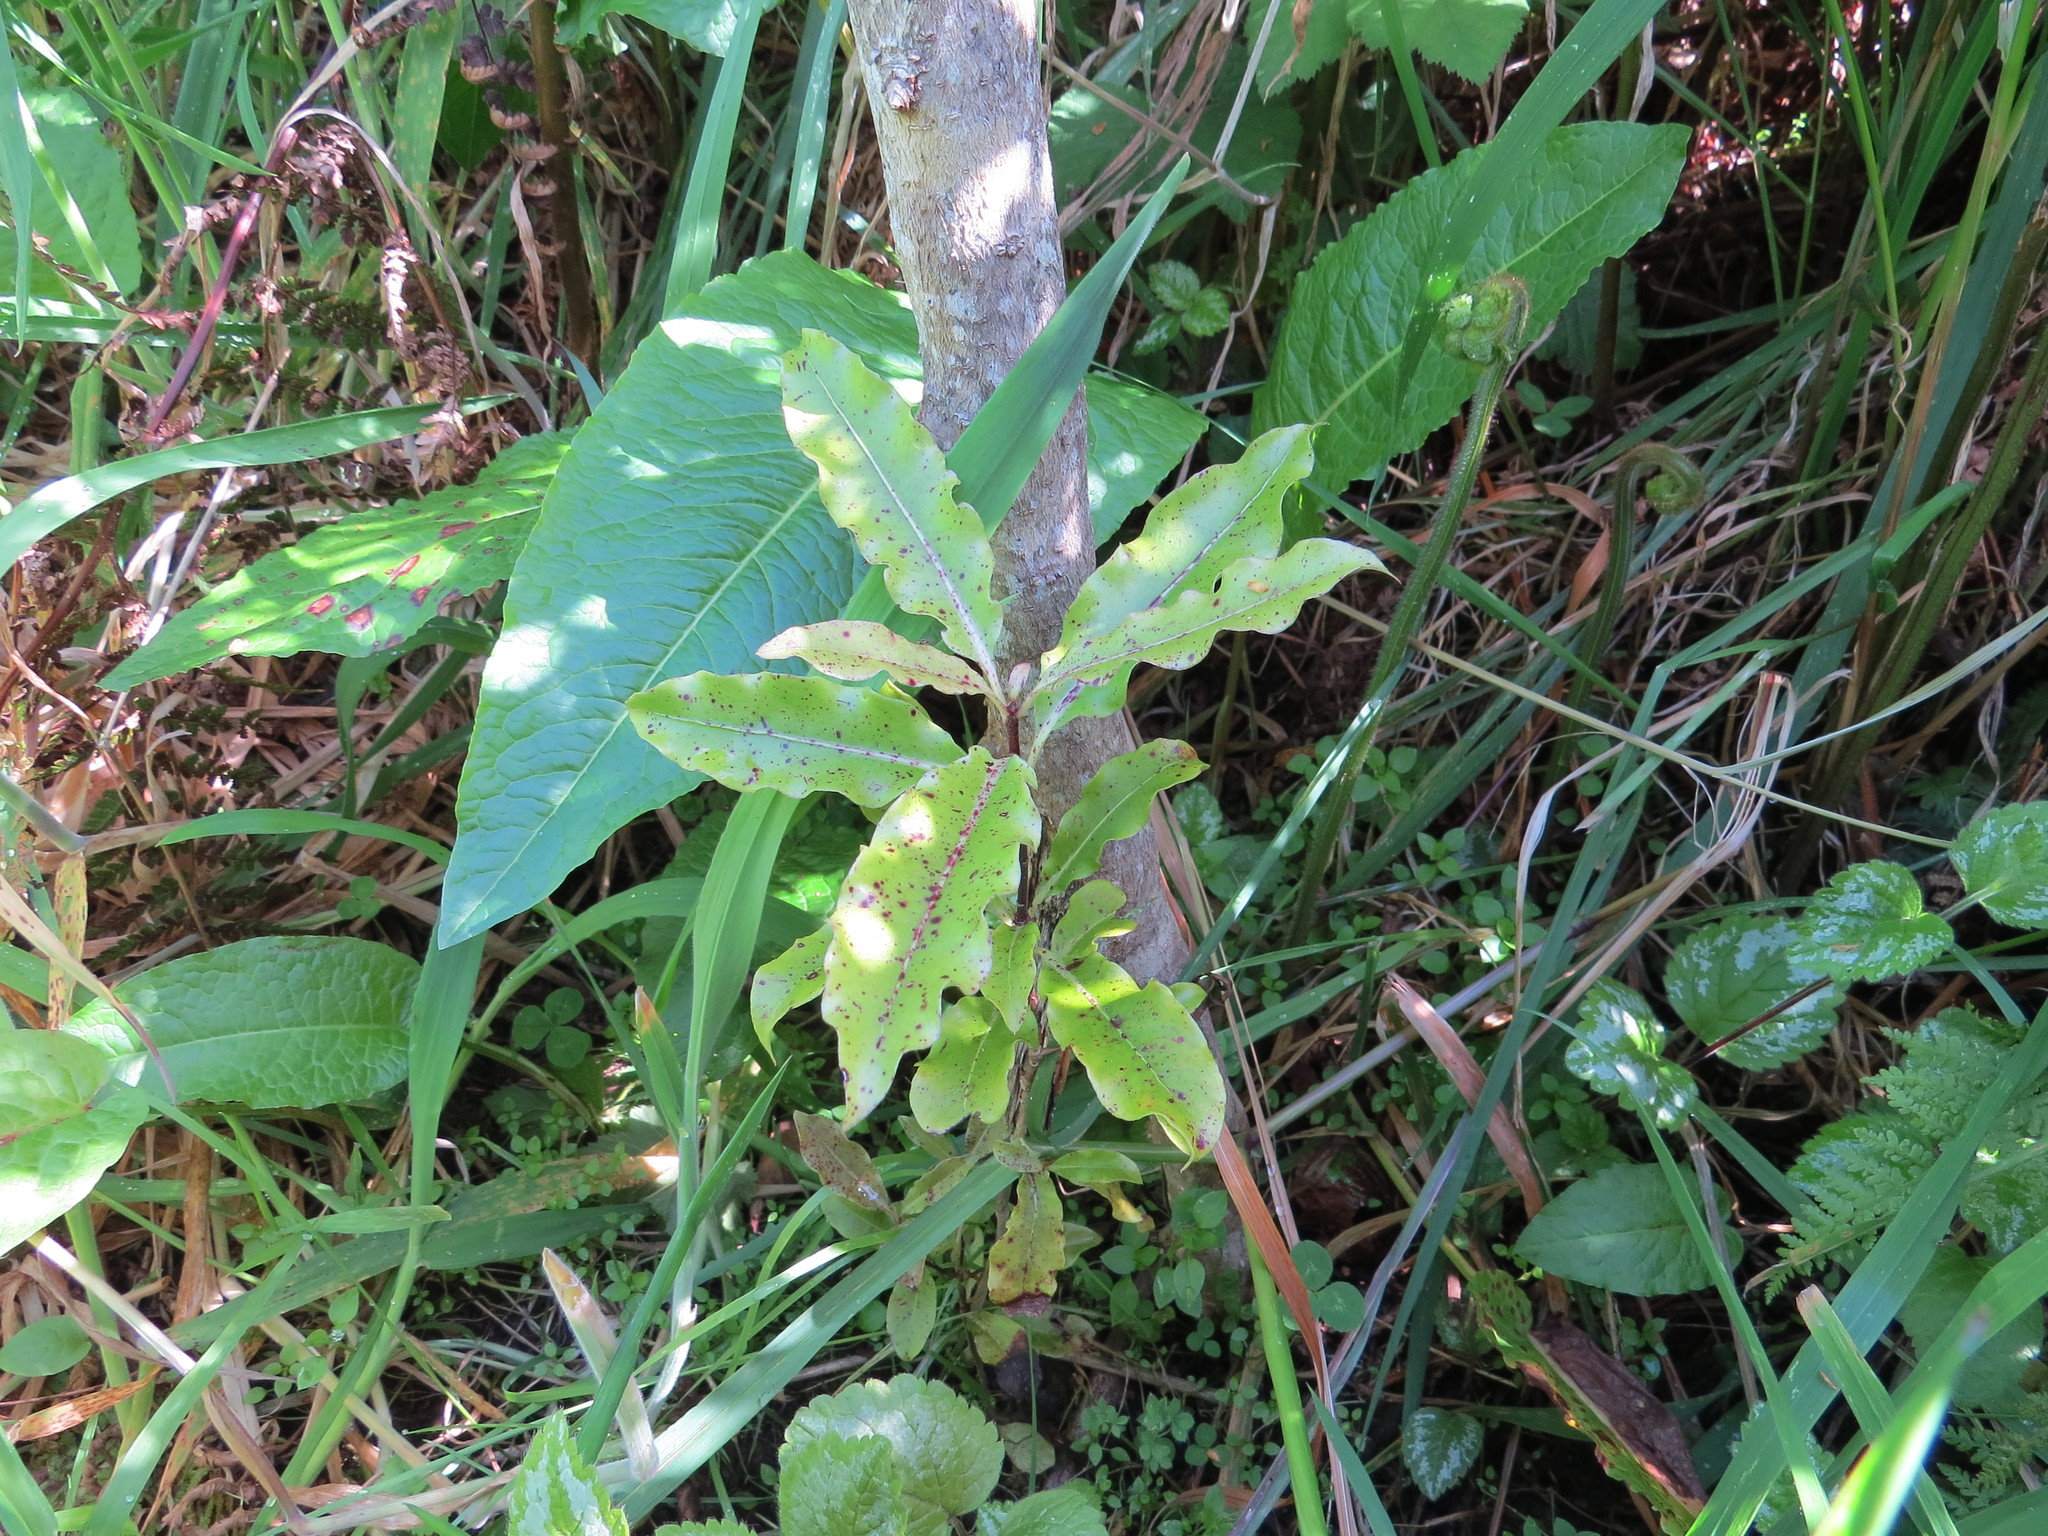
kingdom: Plantae
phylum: Tracheophyta
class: Magnoliopsida
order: Apiales
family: Pittosporaceae
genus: Pittosporum
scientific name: Pittosporum eugenioides
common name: Lemonwood
